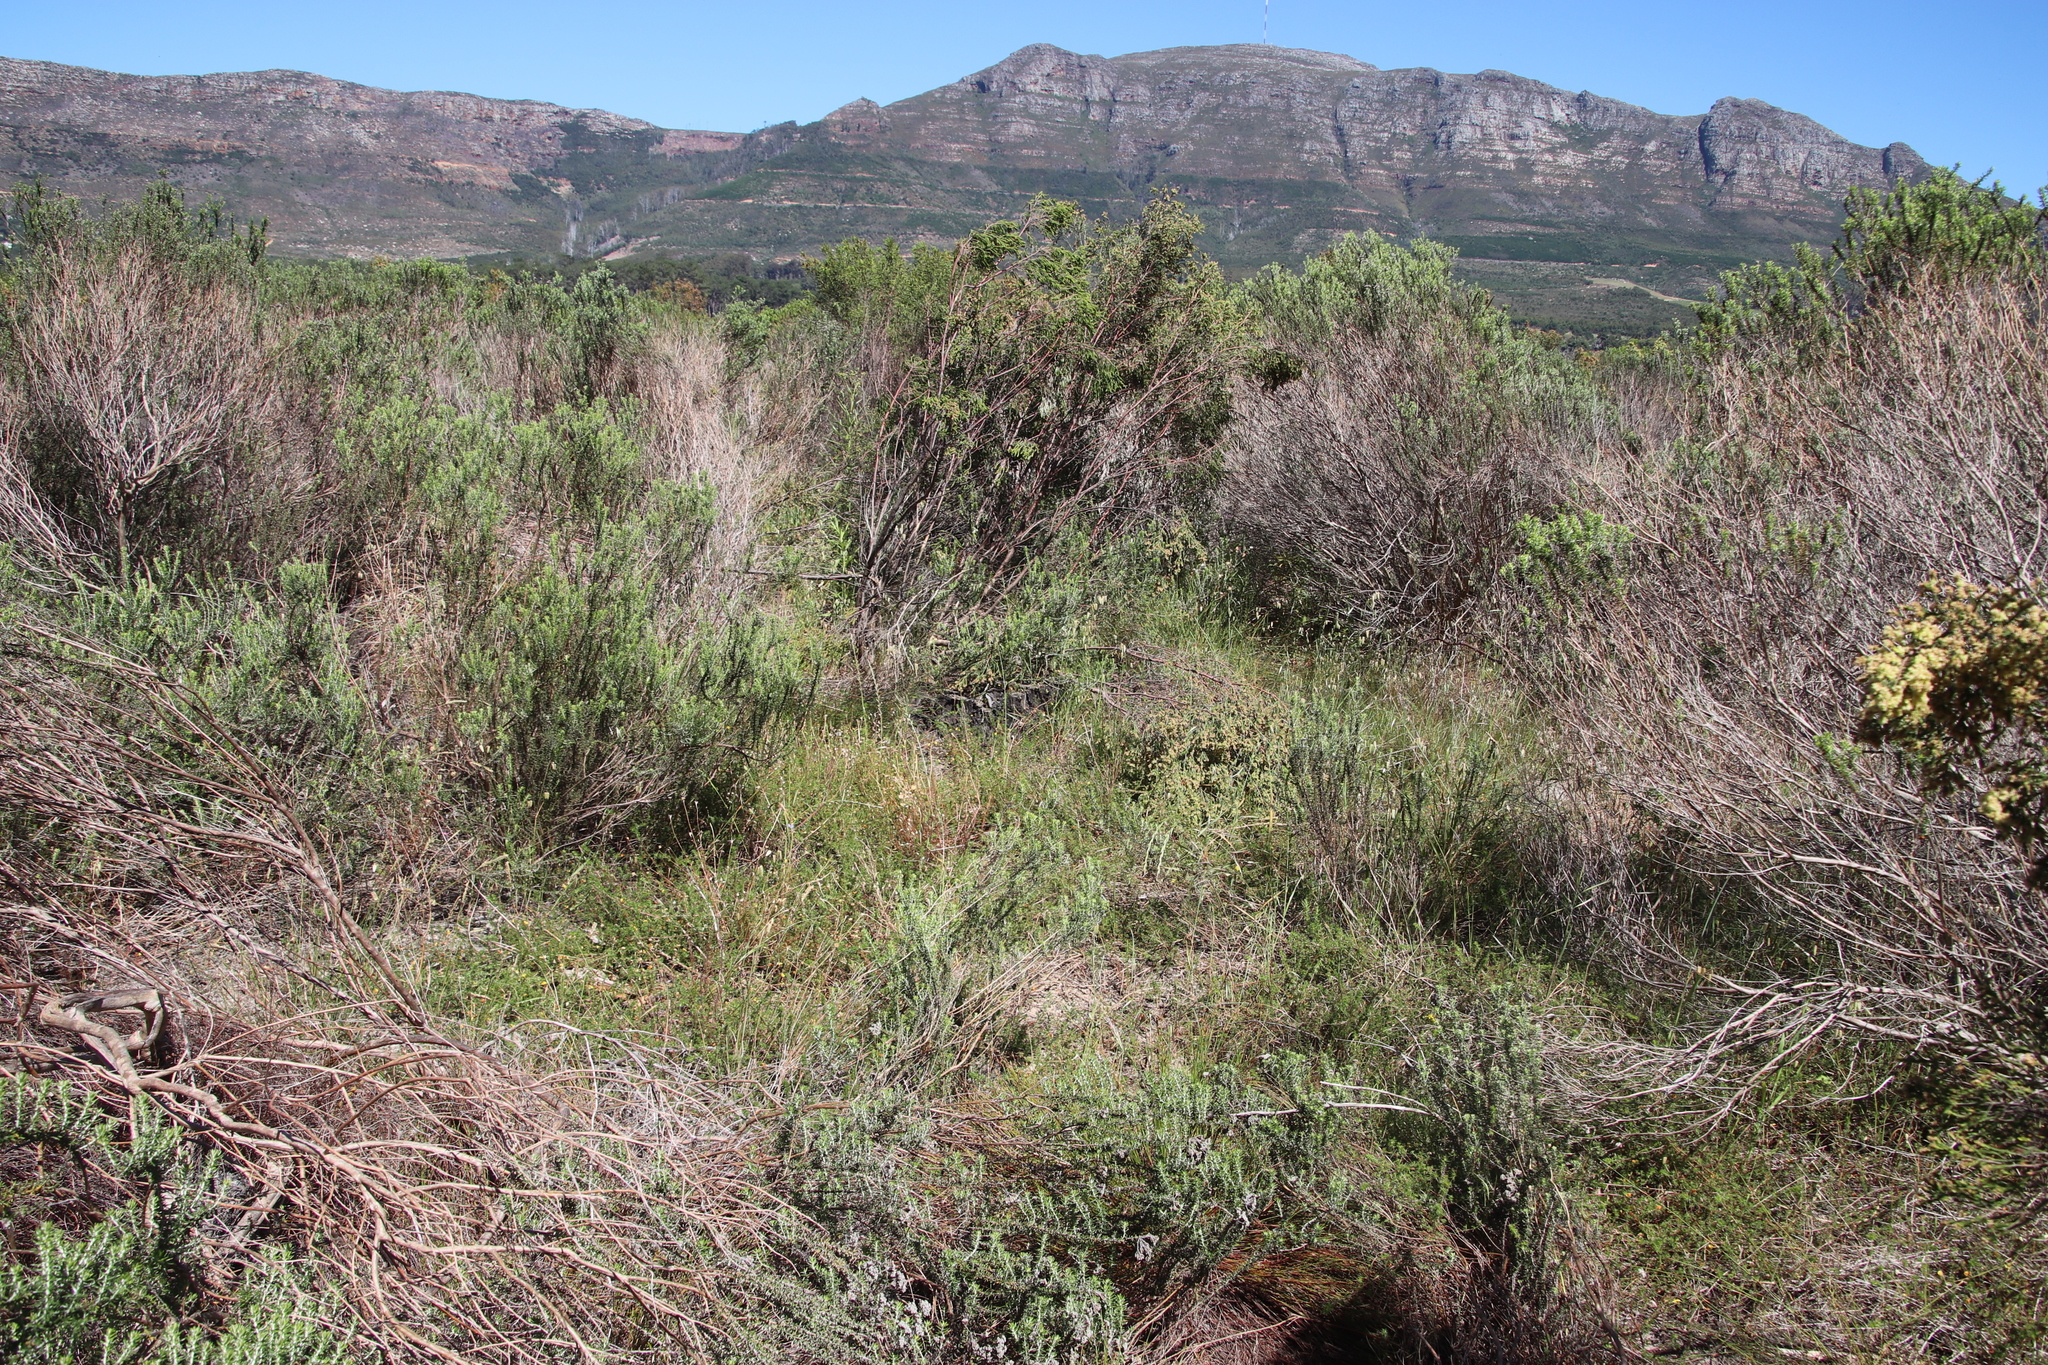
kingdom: Plantae
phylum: Tracheophyta
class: Magnoliopsida
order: Fabales
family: Fabaceae
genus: Aspalathus
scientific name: Aspalathus retroflexa
